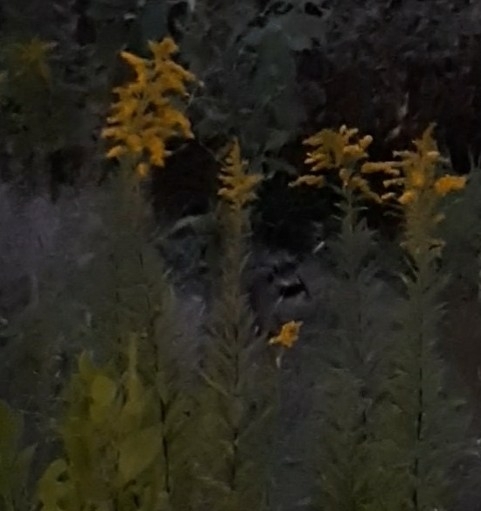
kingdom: Animalia
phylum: Chordata
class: Mammalia
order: Carnivora
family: Procyonidae
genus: Procyon
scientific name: Procyon lotor
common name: Raccoon
